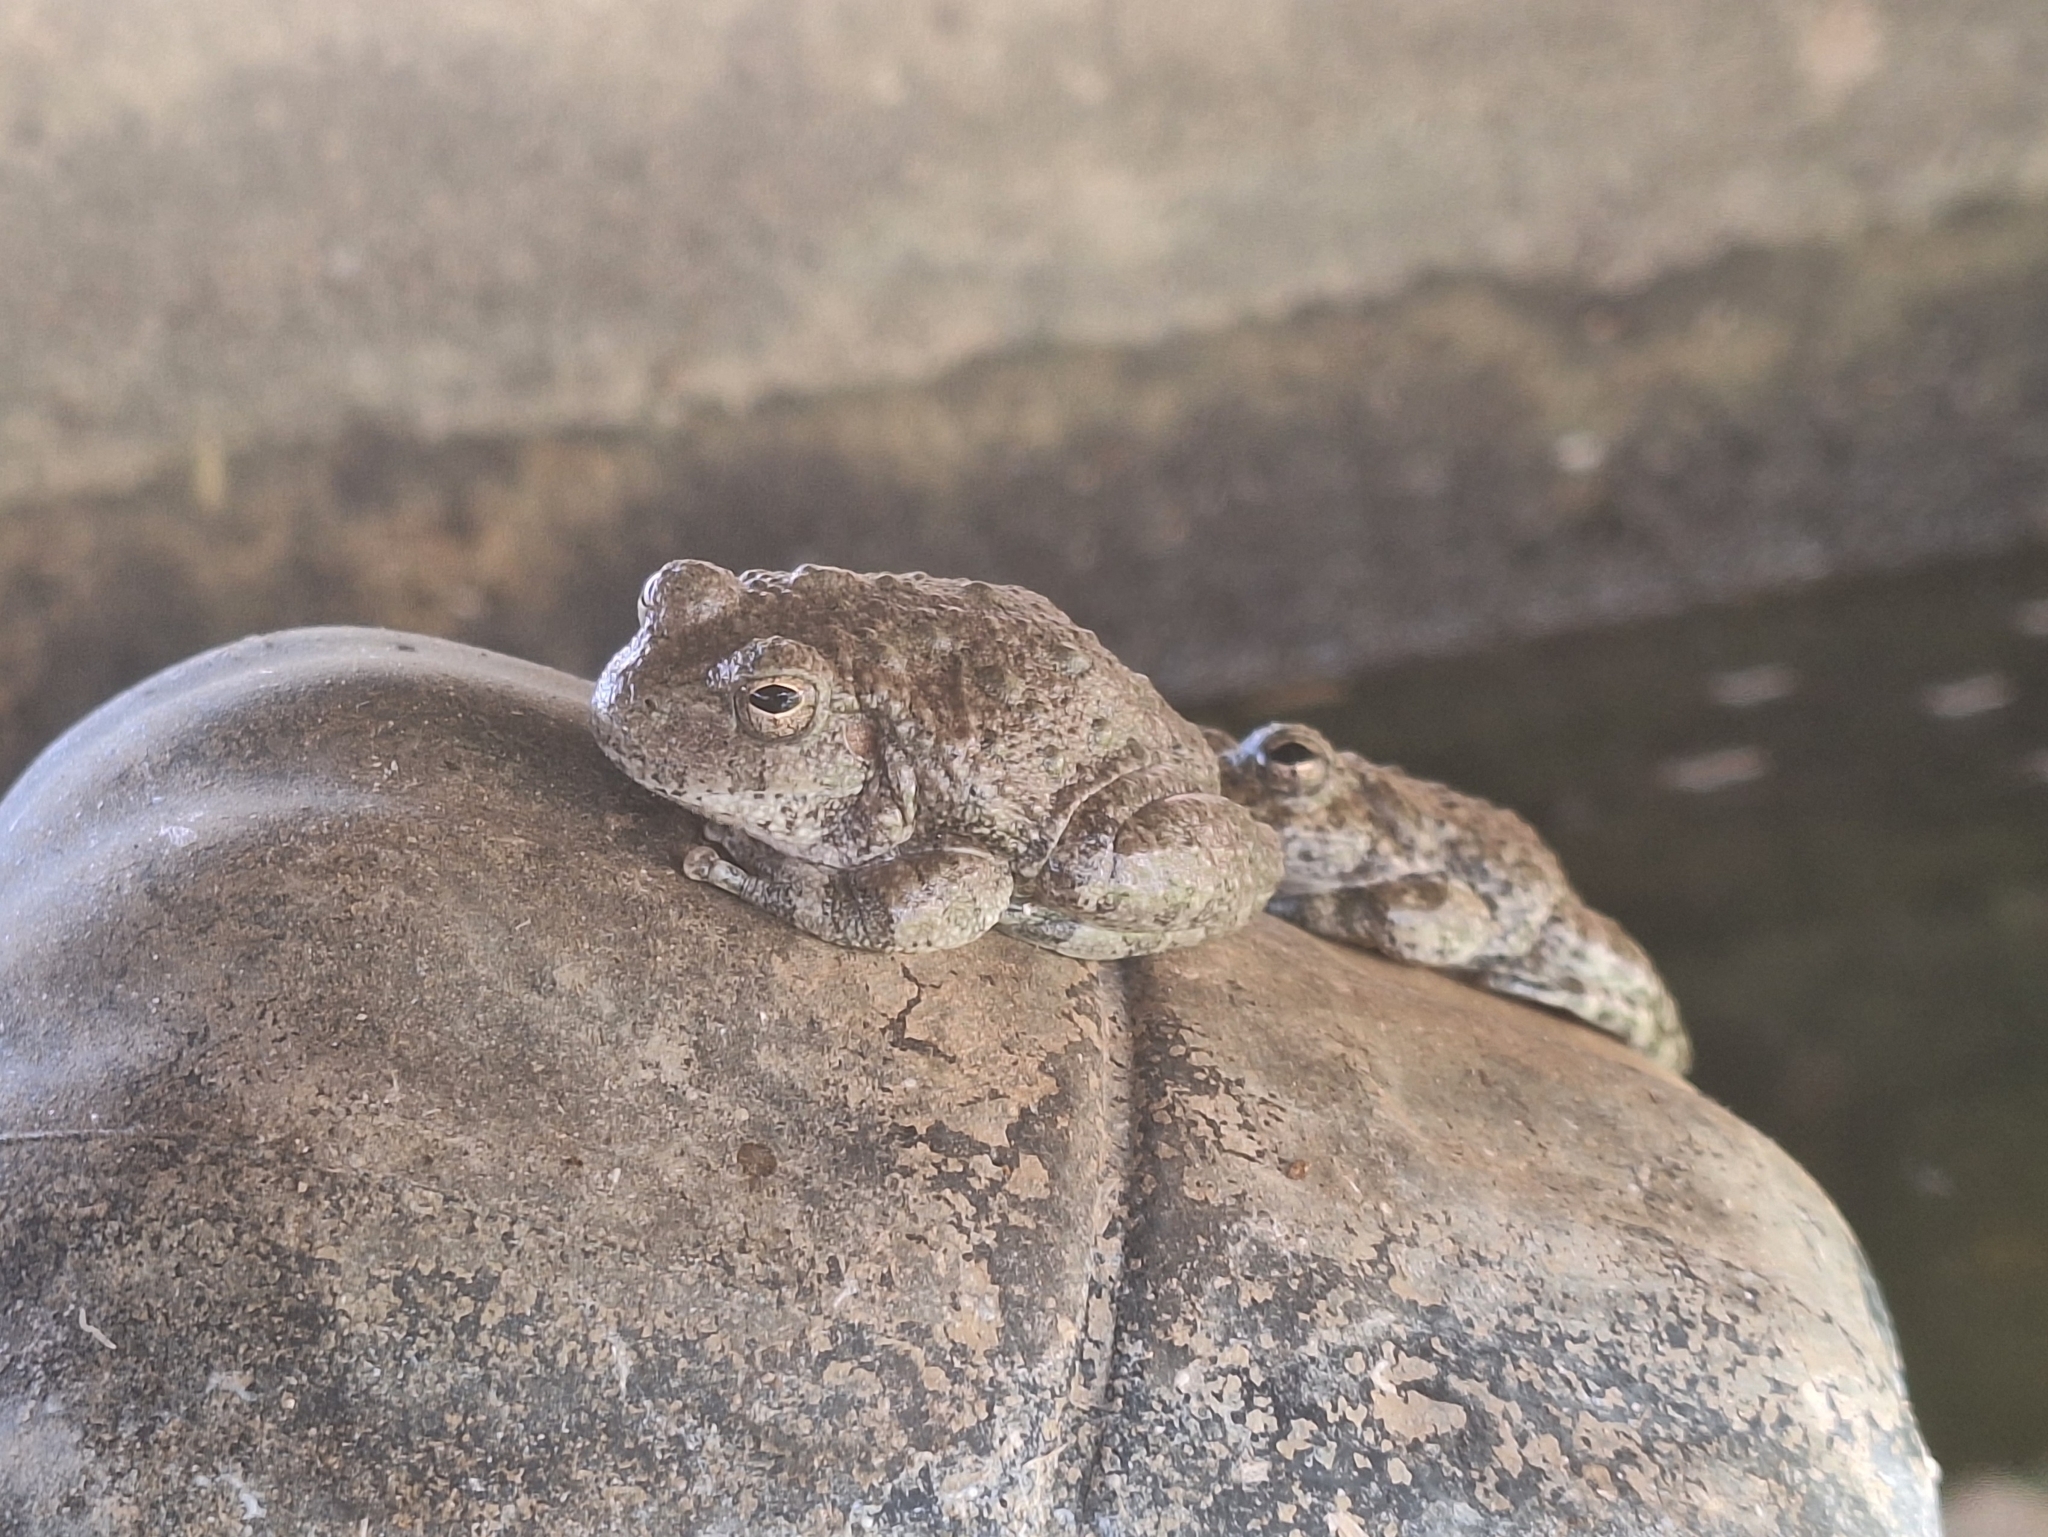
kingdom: Animalia
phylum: Chordata
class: Amphibia
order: Anura
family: Hylidae
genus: Dryophytes
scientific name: Dryophytes arenicolor
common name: Canyon treefrog
